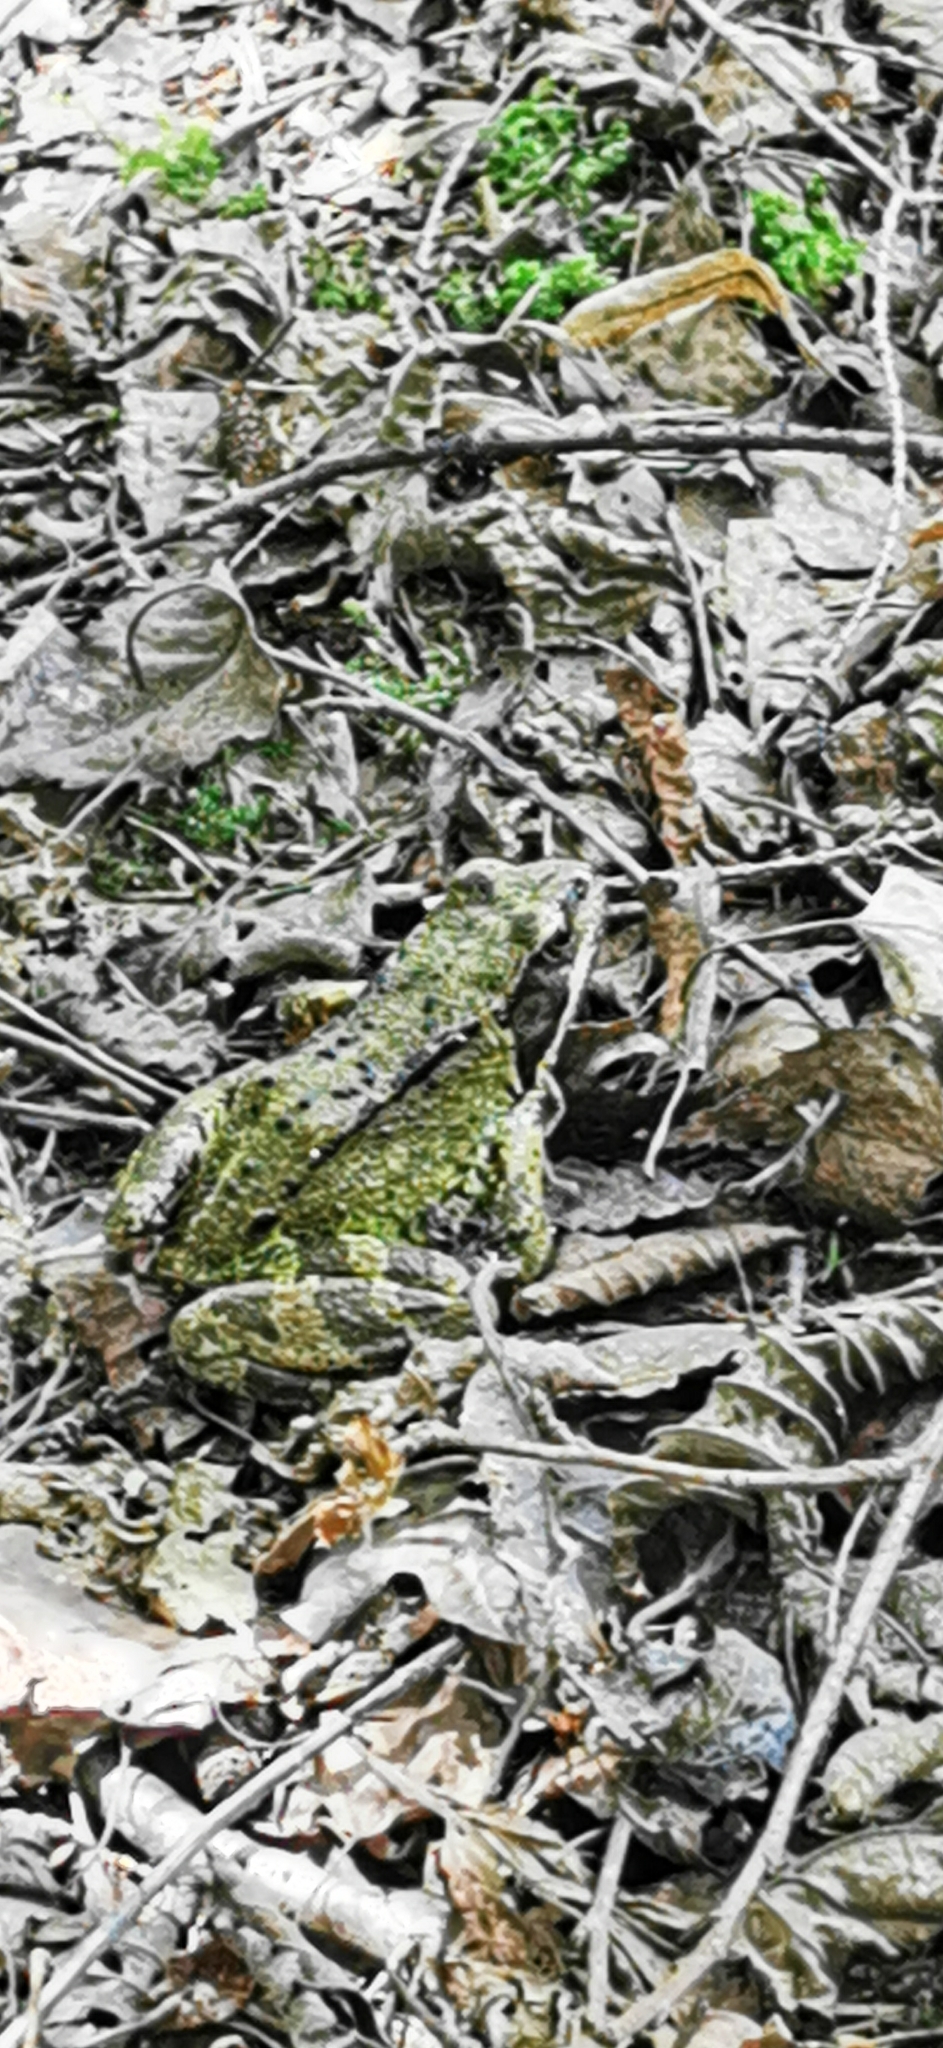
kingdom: Animalia
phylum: Chordata
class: Amphibia
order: Anura
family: Ranidae
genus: Rana
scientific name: Rana temporaria
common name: Common frog
